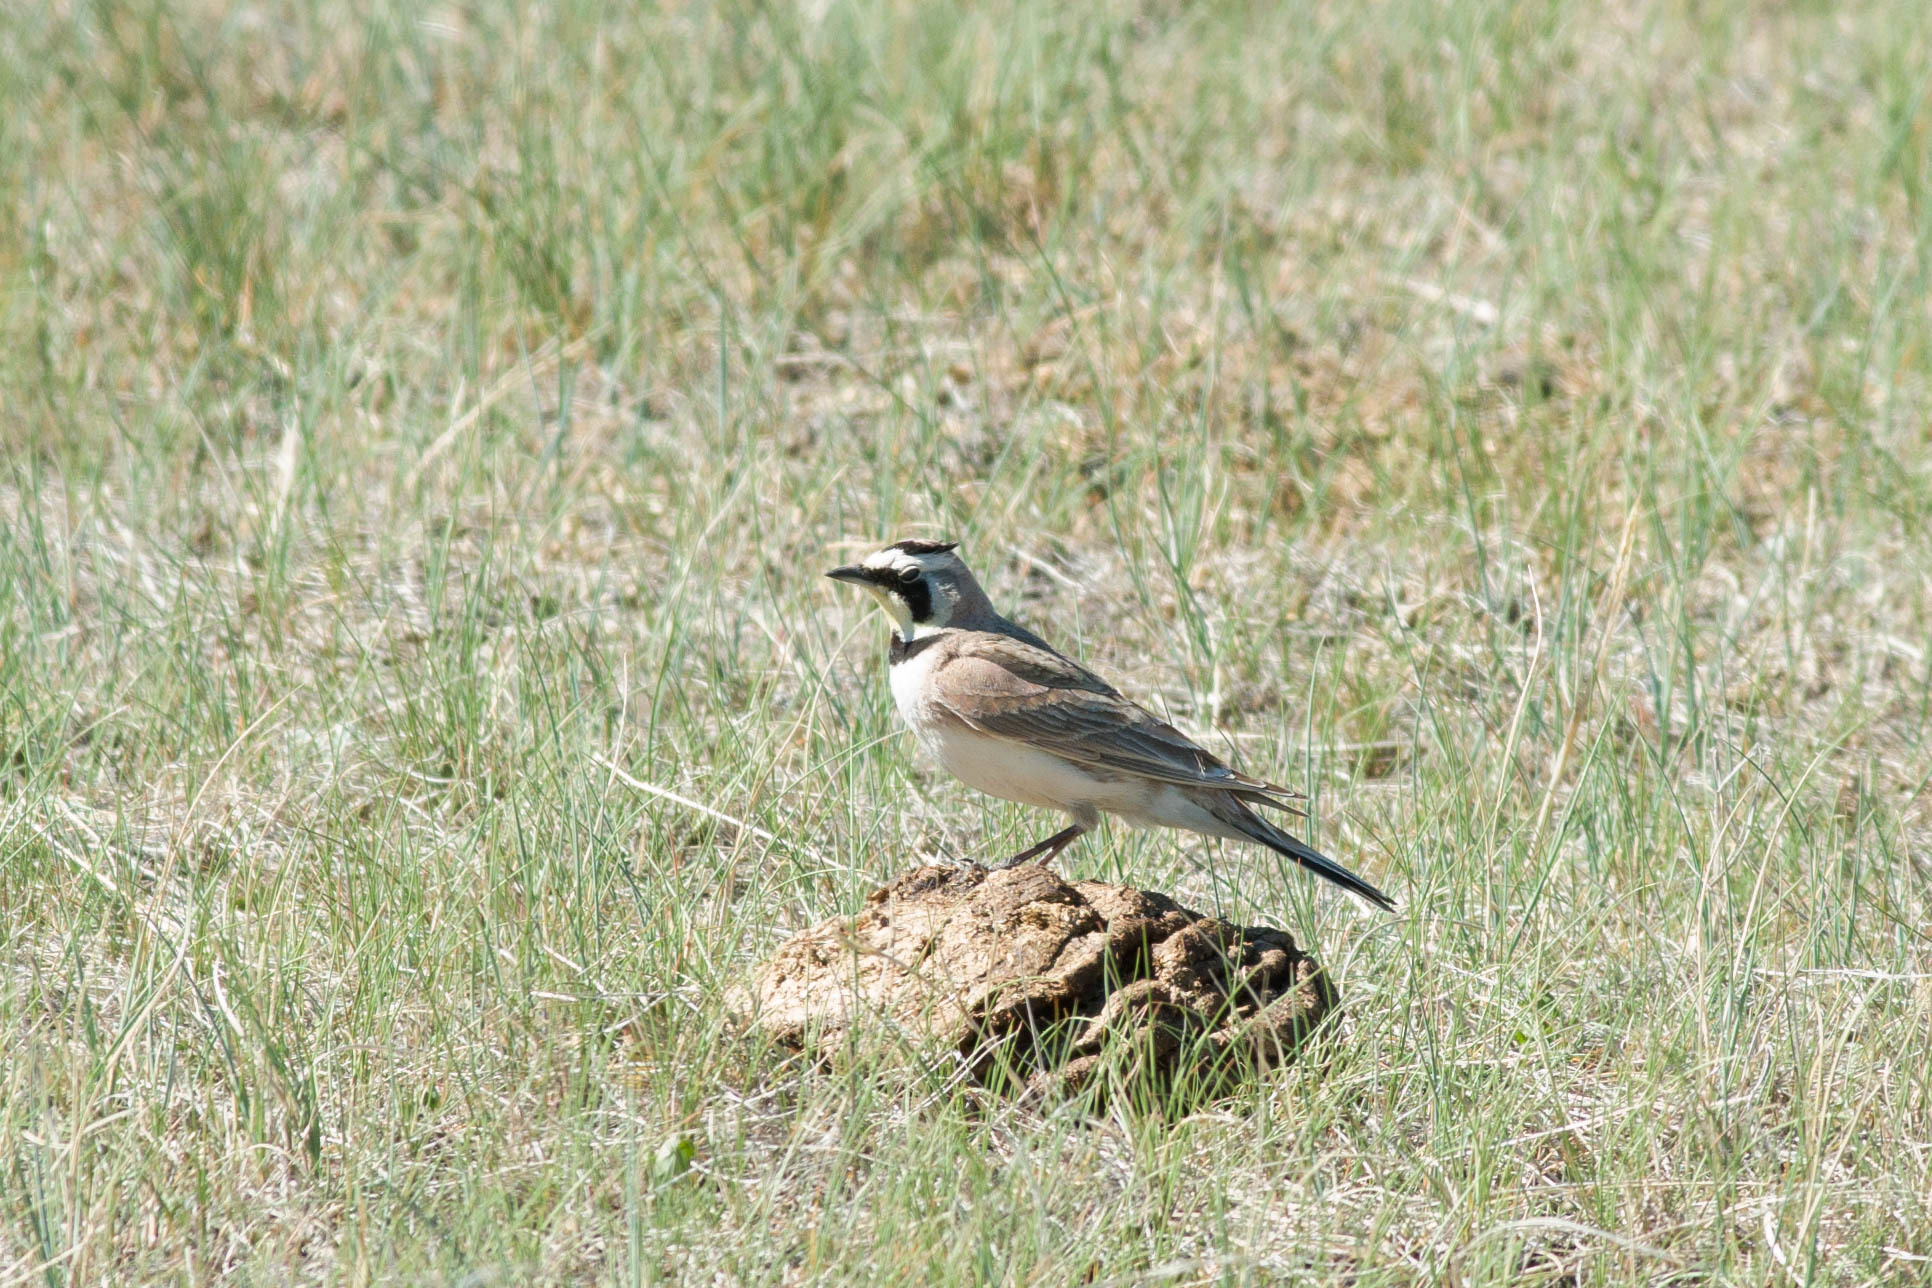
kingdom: Animalia
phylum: Chordata
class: Aves
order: Passeriformes
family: Alaudidae
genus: Eremophila
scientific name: Eremophila alpestris
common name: Horned lark
